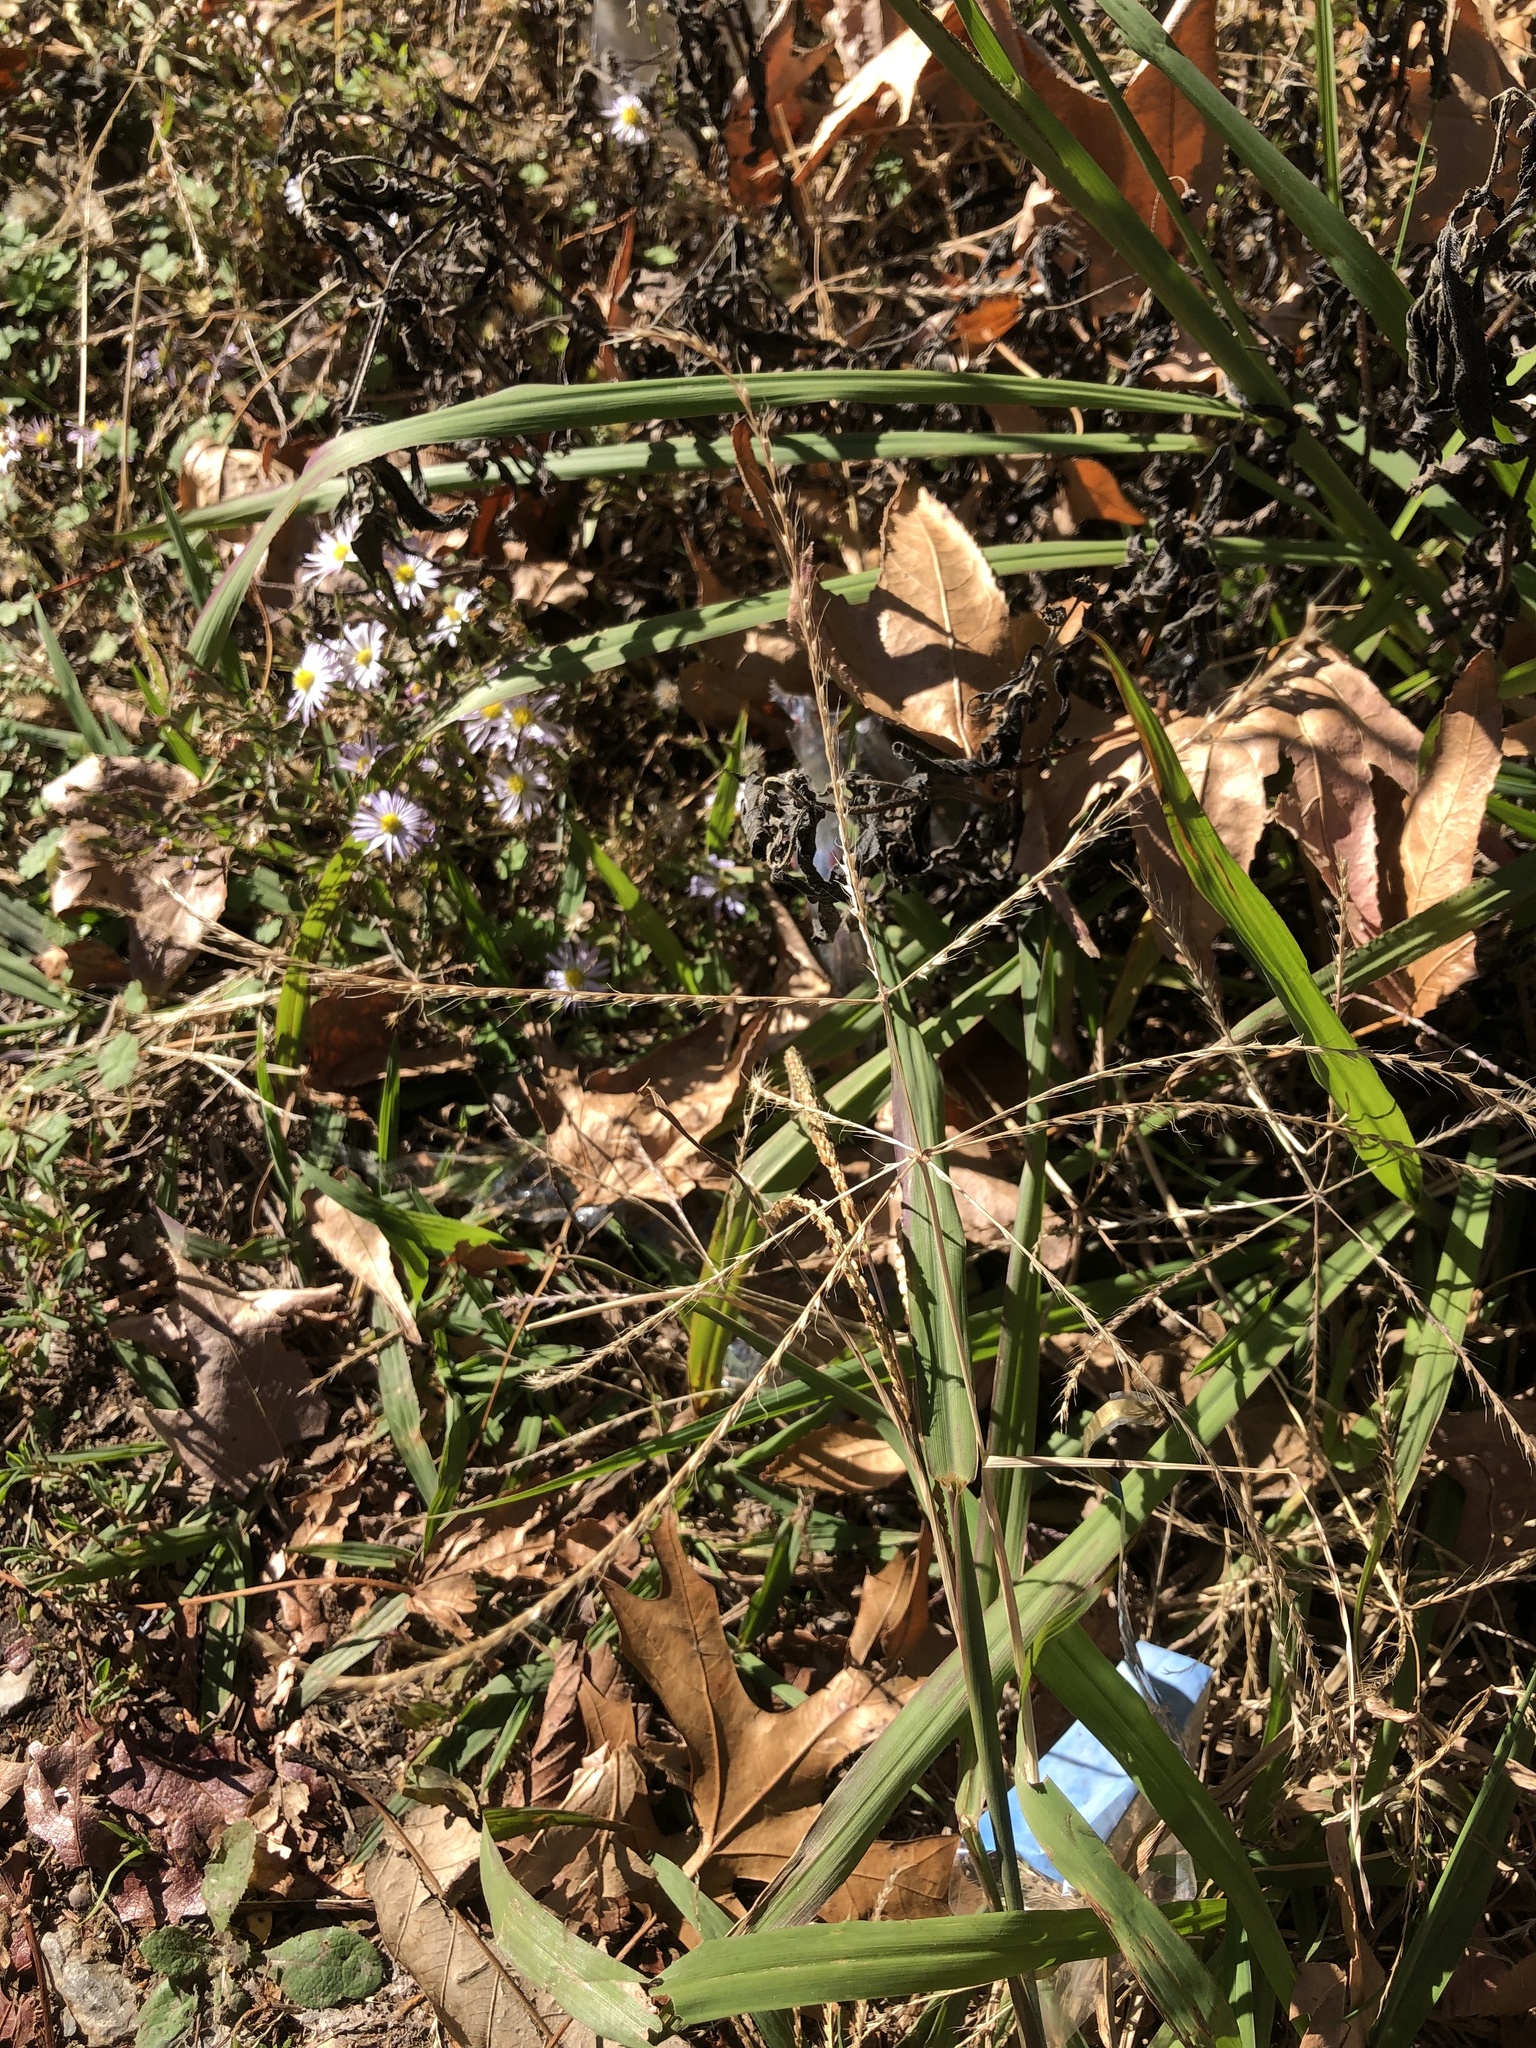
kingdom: Plantae
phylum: Tracheophyta
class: Liliopsida
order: Poales
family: Poaceae
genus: Chloris
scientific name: Chloris verticillata
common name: Tumble windmill grass
